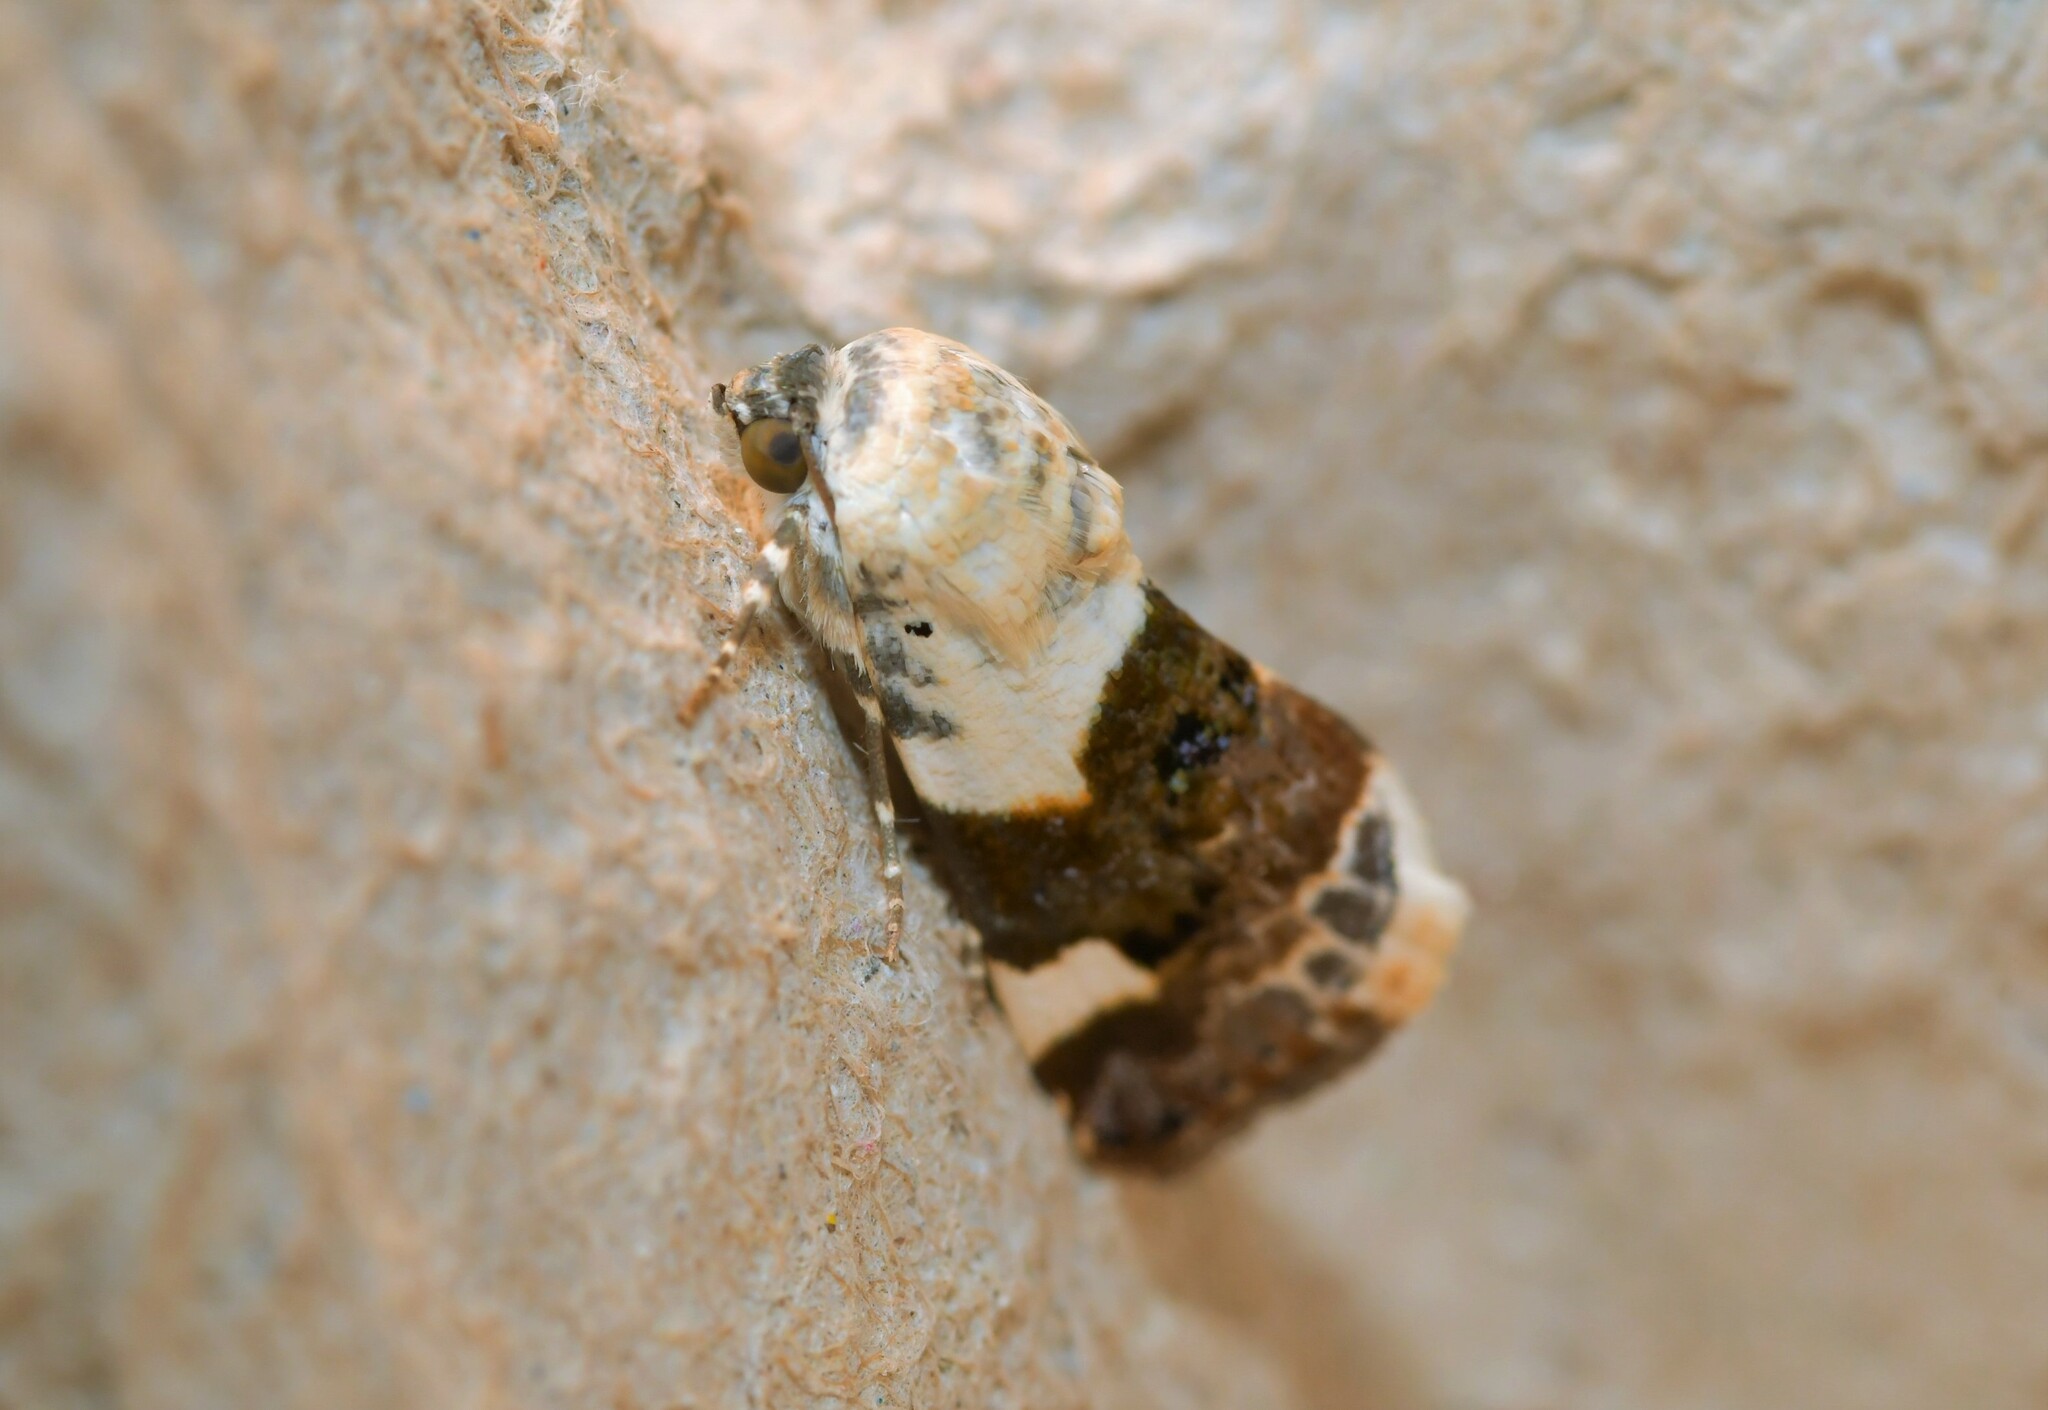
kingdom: Animalia
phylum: Arthropoda
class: Insecta
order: Lepidoptera
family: Noctuidae
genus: Acontia
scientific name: Acontia lucida
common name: Pale shoulder
